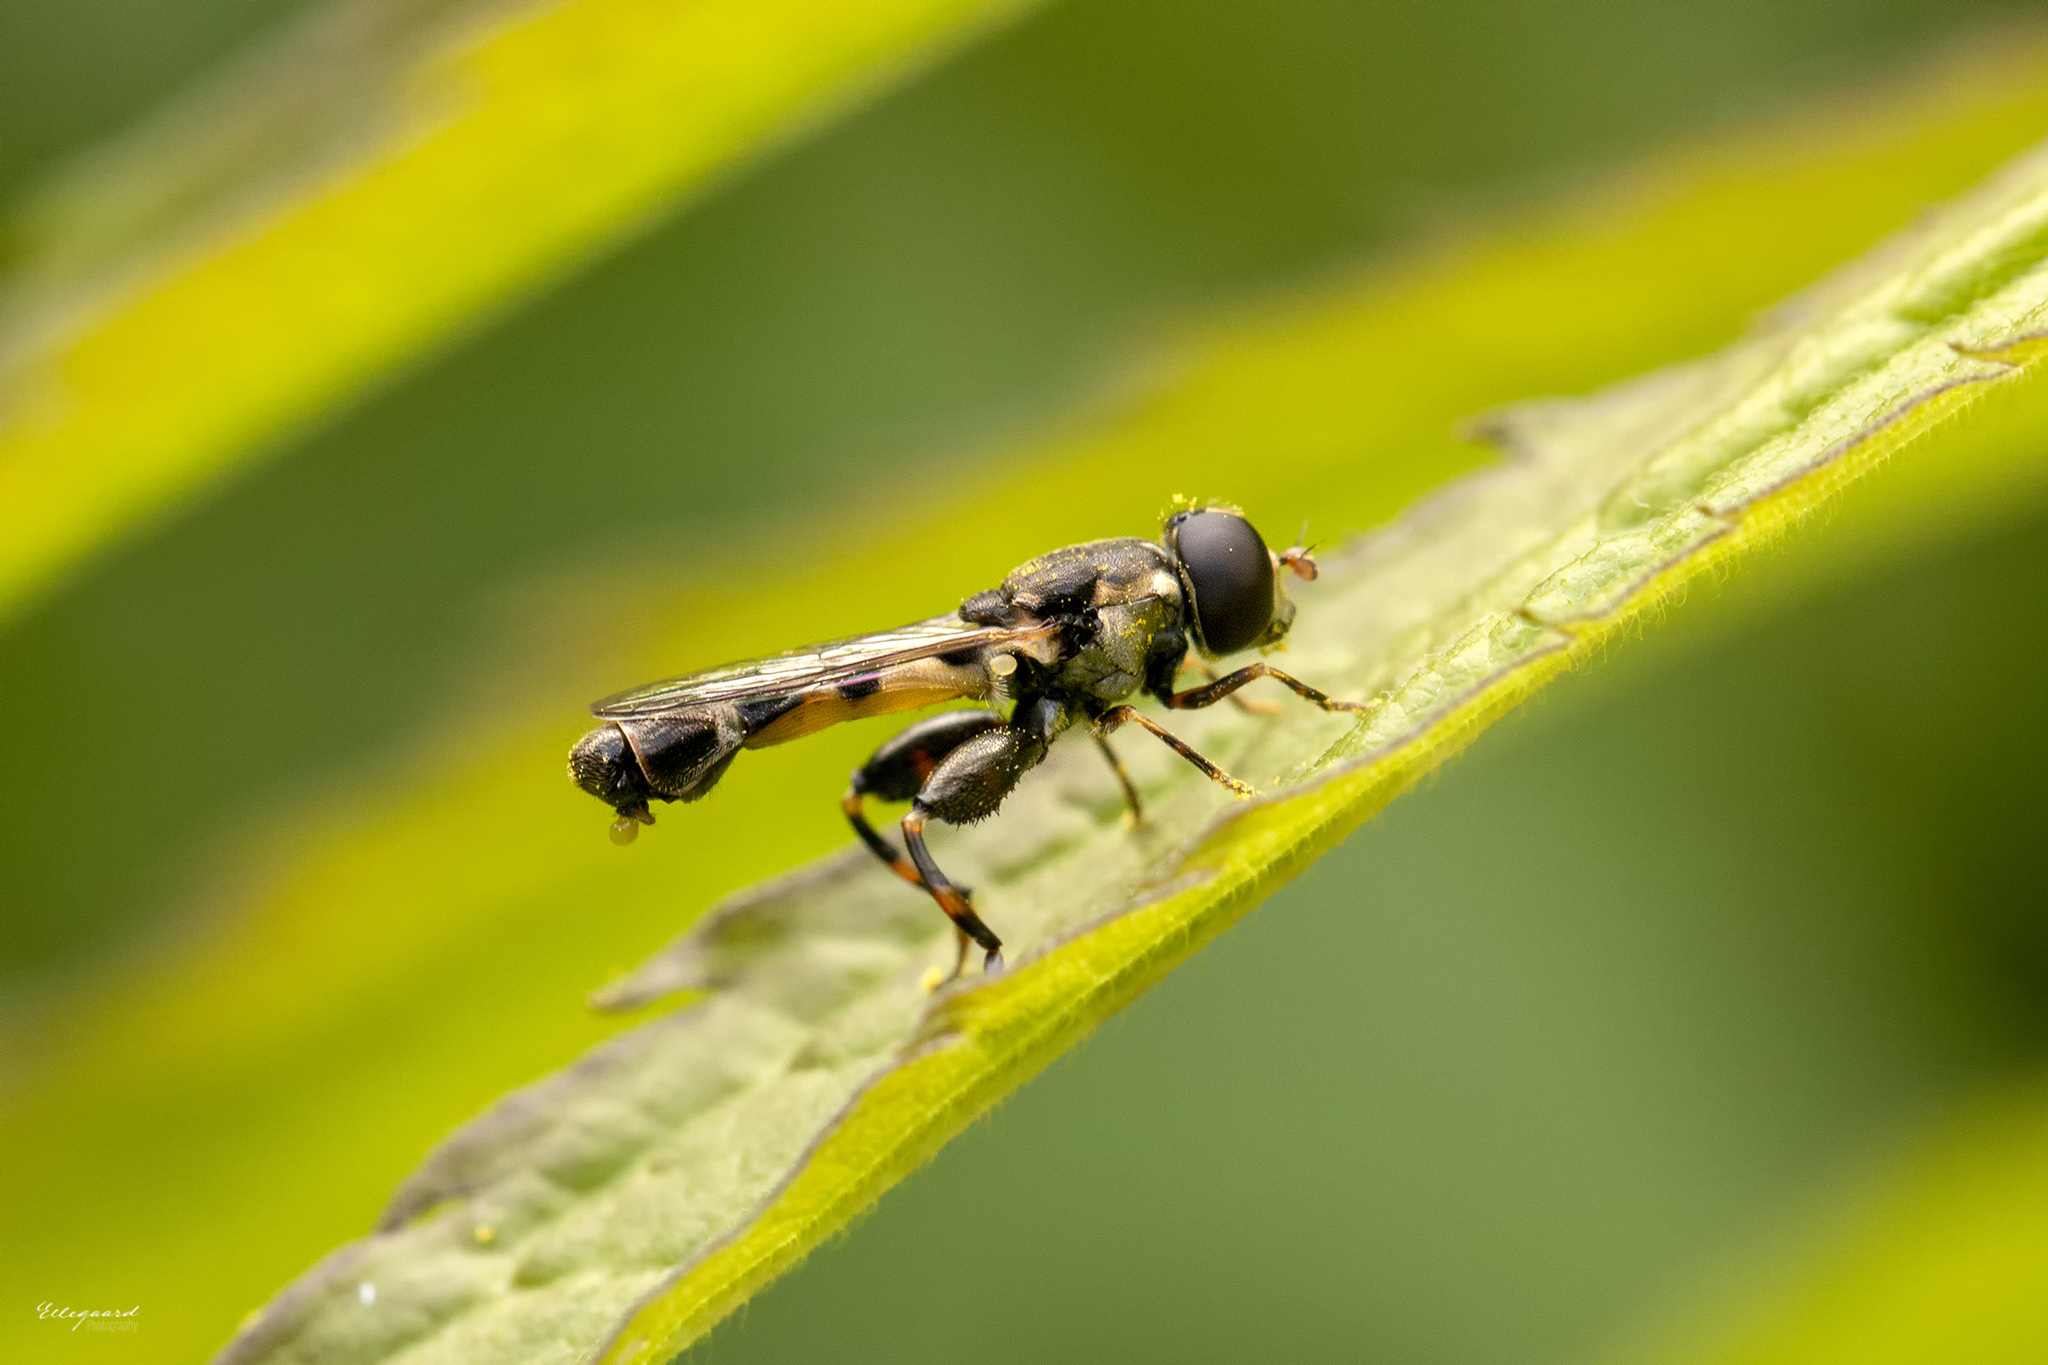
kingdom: Animalia
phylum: Arthropoda
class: Insecta
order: Diptera
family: Syrphidae
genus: Syritta
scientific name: Syritta pipiens
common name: Hover fly
